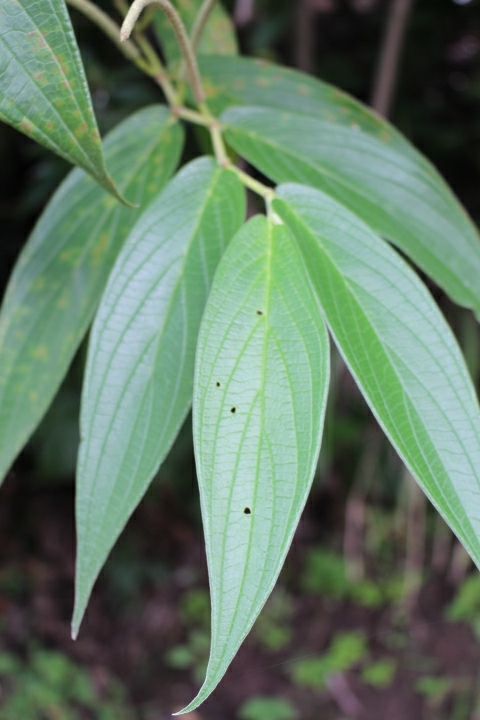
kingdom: Plantae
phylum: Tracheophyta
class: Magnoliopsida
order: Piperales
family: Piperaceae
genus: Piper
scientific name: Piper aduncum
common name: Spiked pepper
